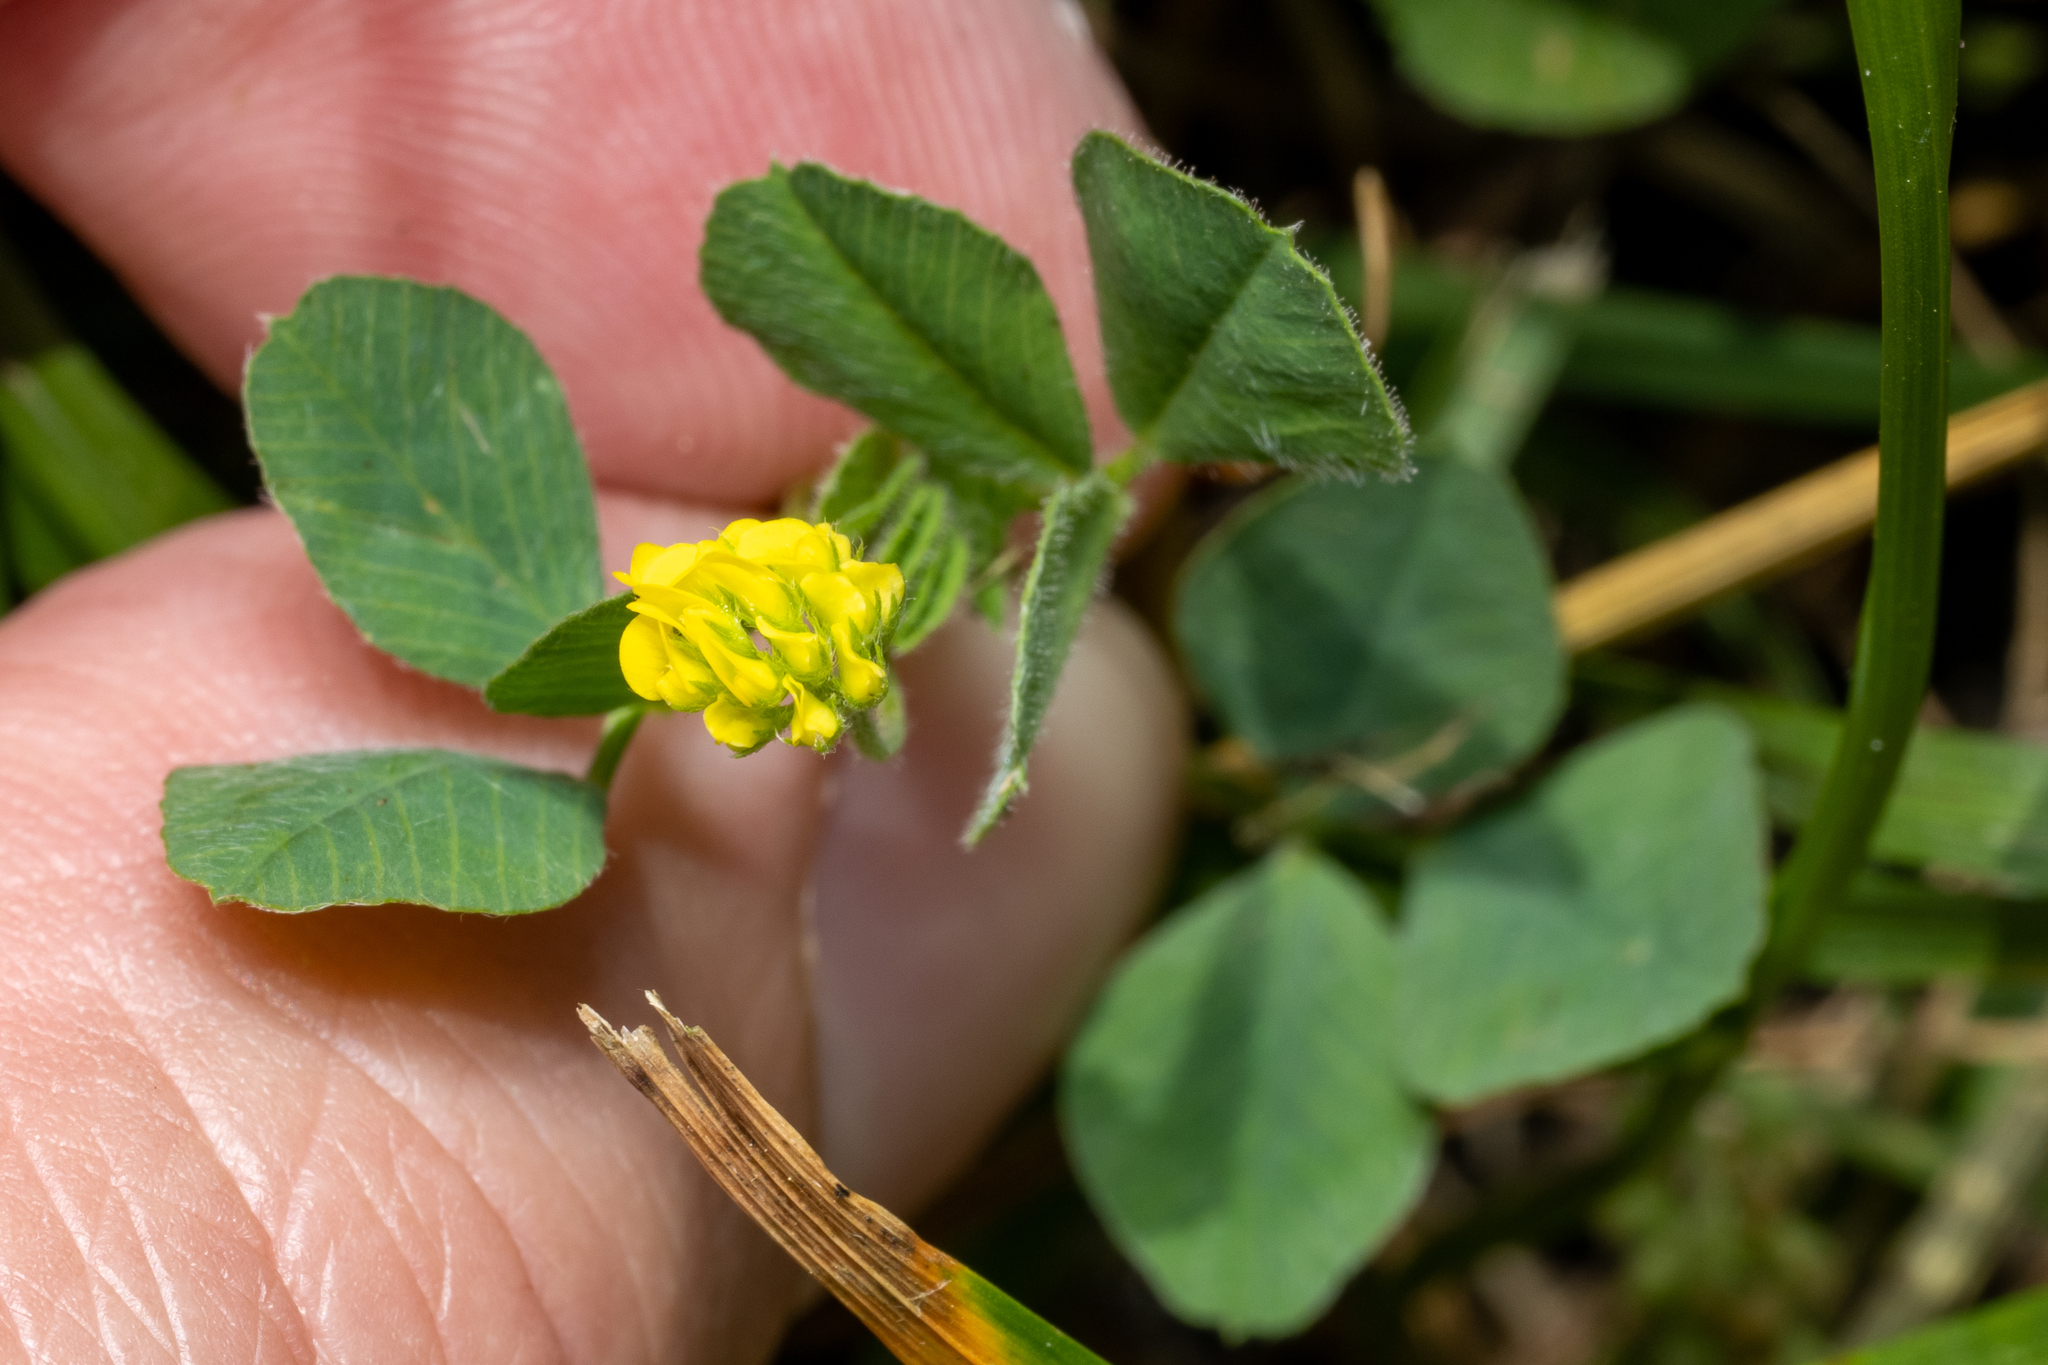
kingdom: Plantae
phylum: Tracheophyta
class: Magnoliopsida
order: Fabales
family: Fabaceae
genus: Medicago
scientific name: Medicago lupulina
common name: Black medick
